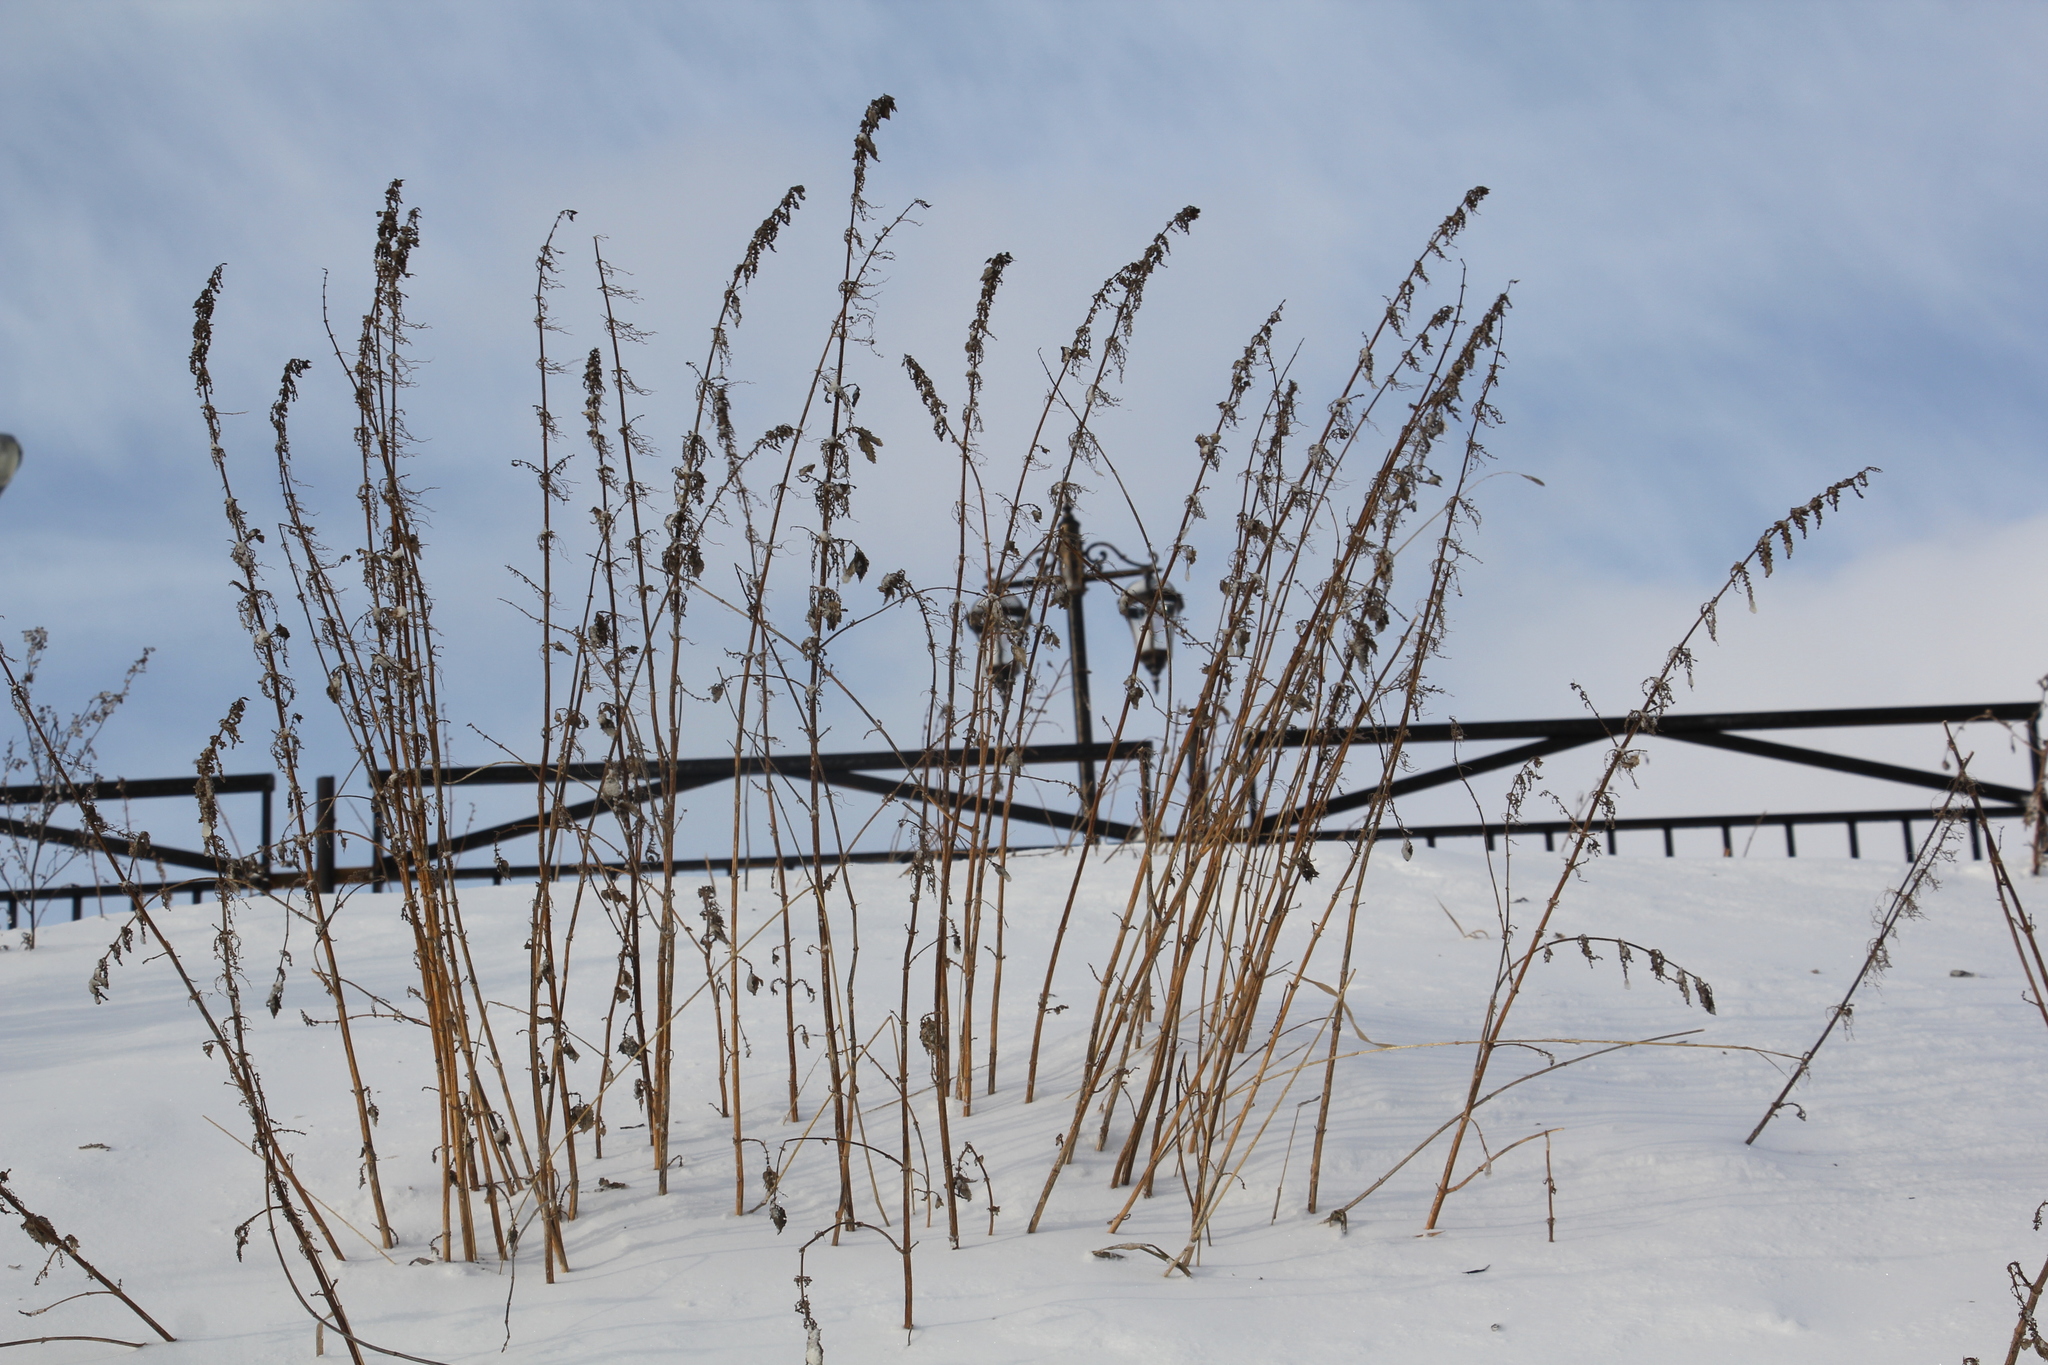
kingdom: Plantae
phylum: Tracheophyta
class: Magnoliopsida
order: Rosales
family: Urticaceae
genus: Urtica
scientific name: Urtica dioica
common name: Common nettle
